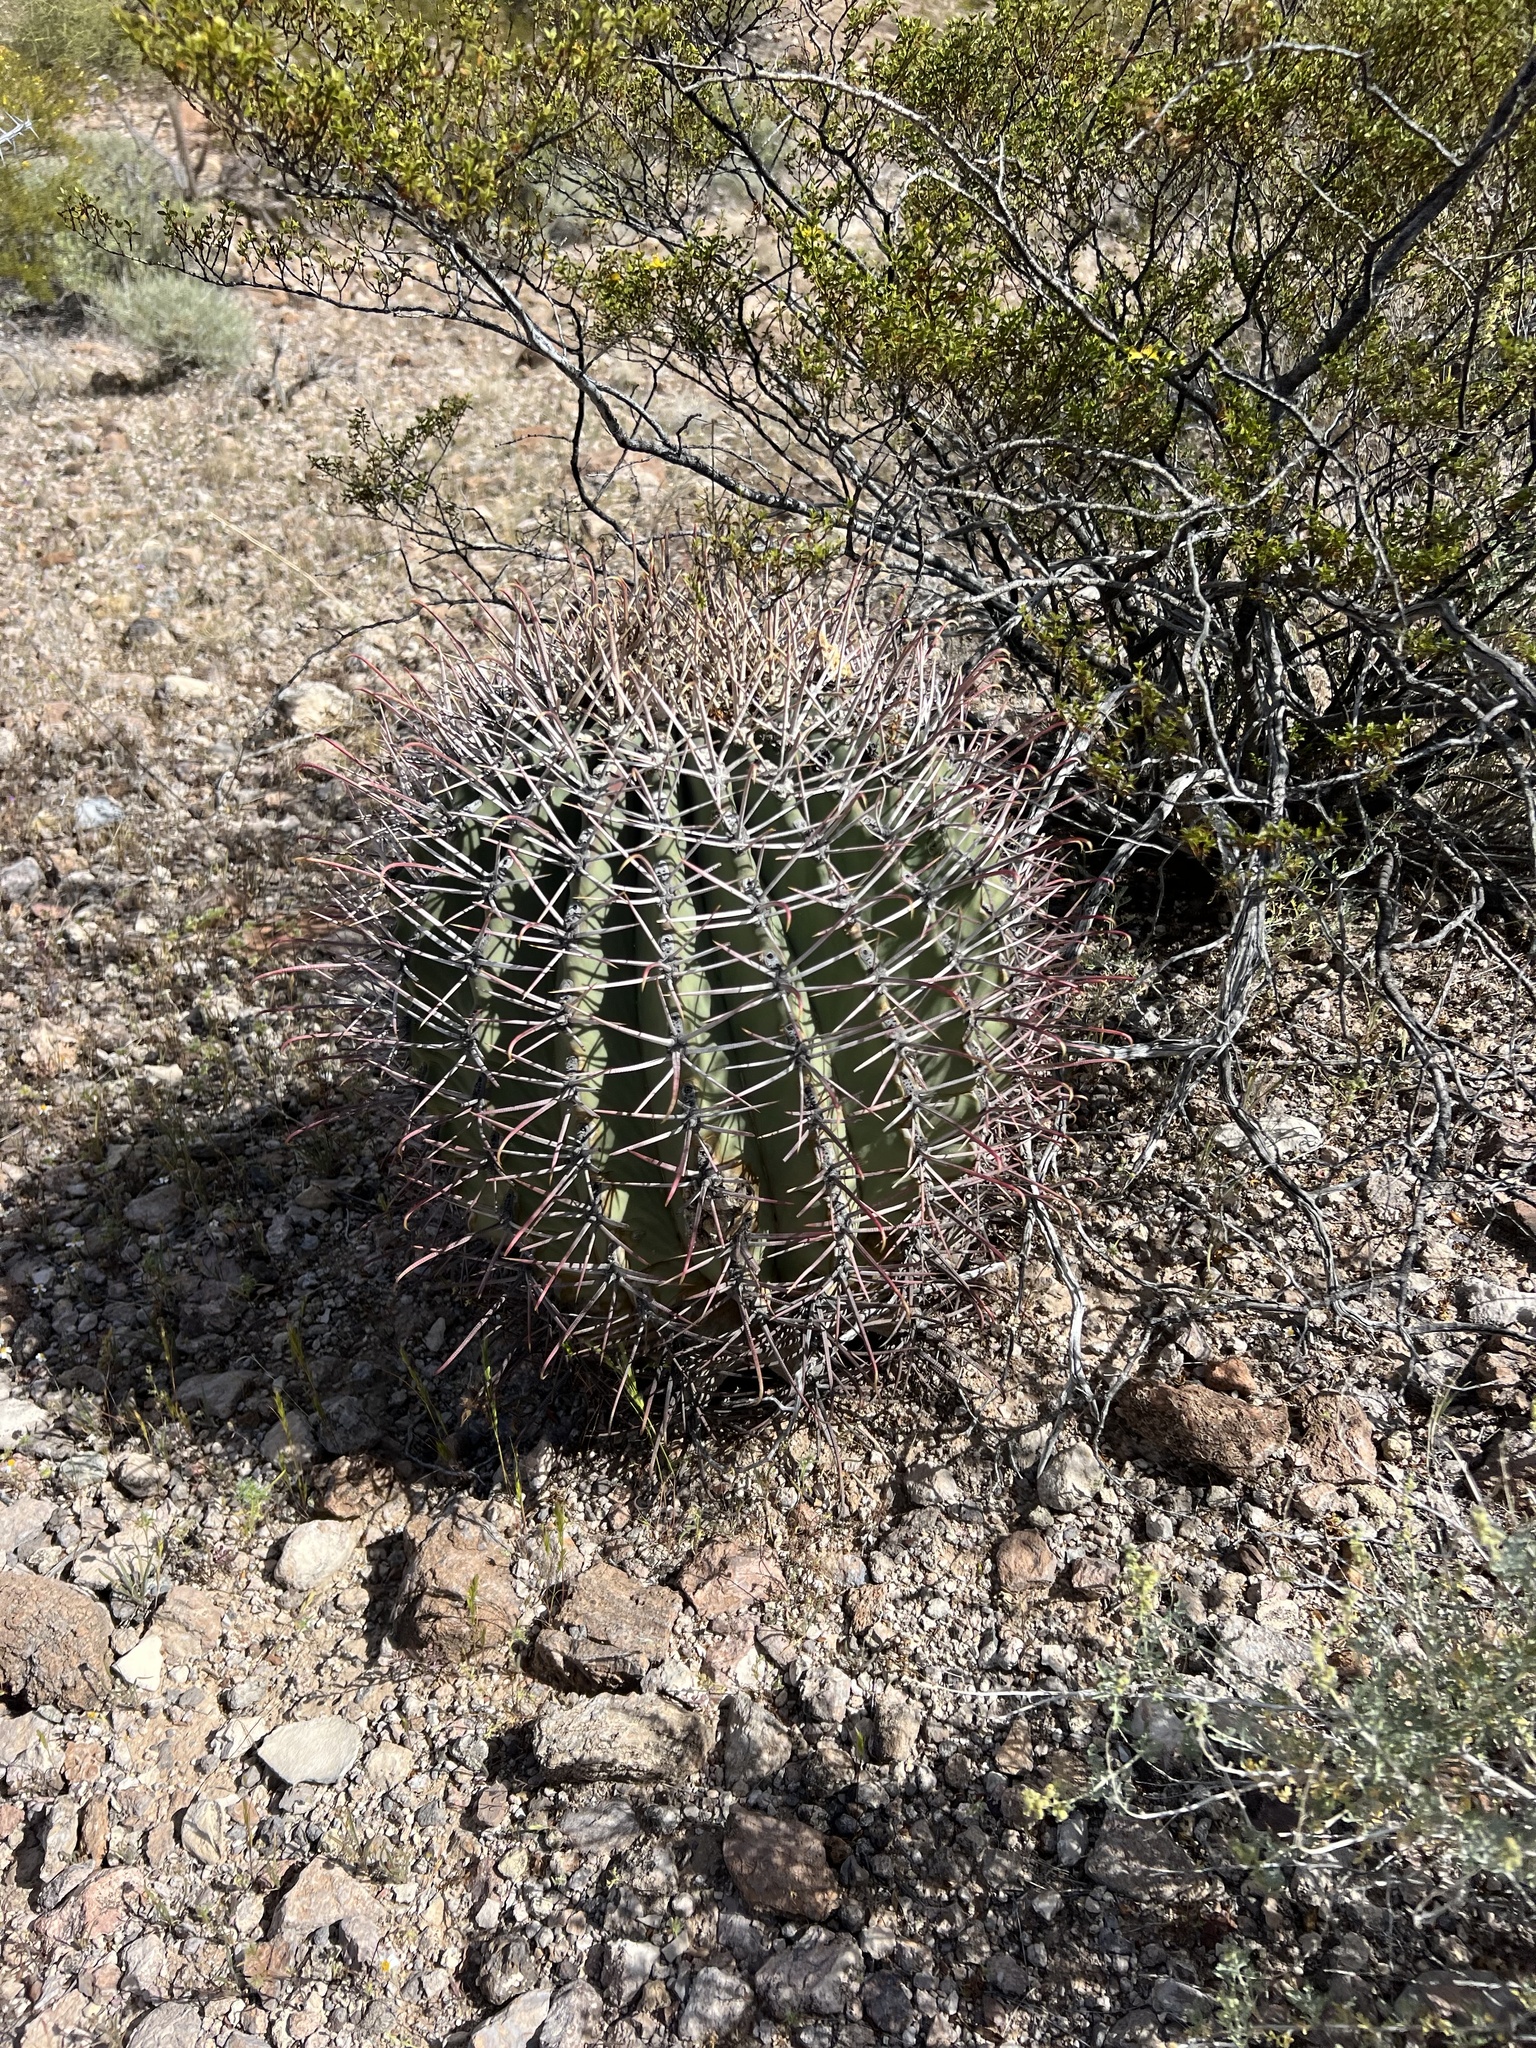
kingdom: Plantae
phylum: Tracheophyta
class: Magnoliopsida
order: Caryophyllales
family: Cactaceae
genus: Ferocactus
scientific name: Ferocactus emoryi
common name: Emory's barrel cactus
